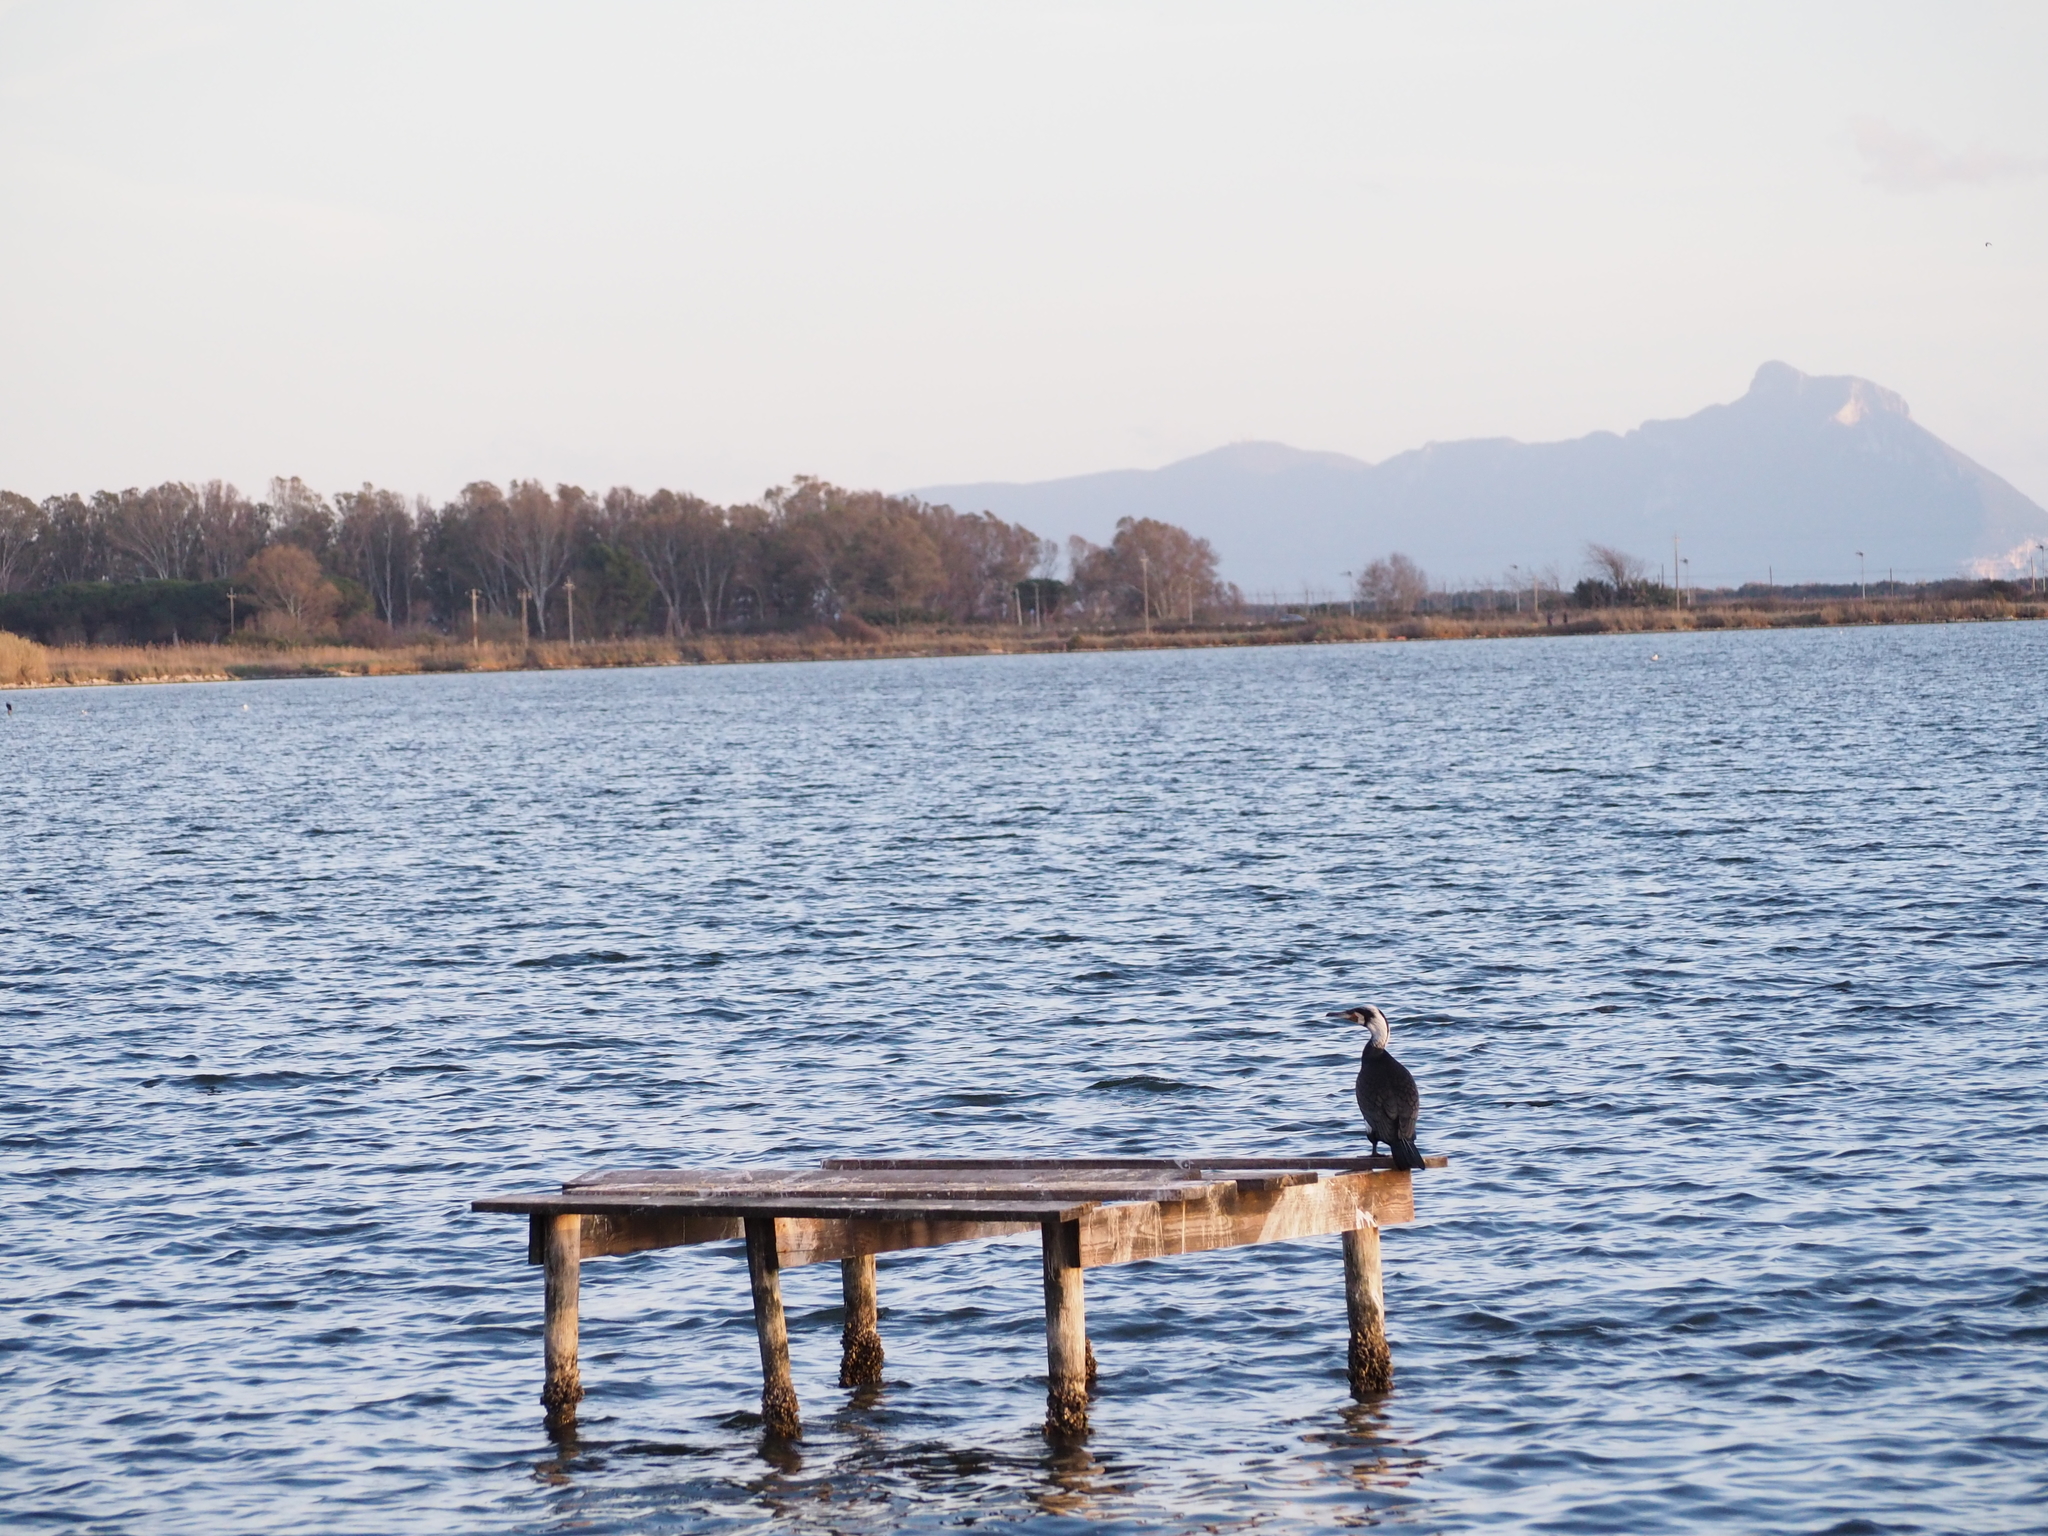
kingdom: Animalia
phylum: Chordata
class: Aves
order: Suliformes
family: Phalacrocoracidae
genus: Phalacrocorax
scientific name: Phalacrocorax carbo
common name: Great cormorant
